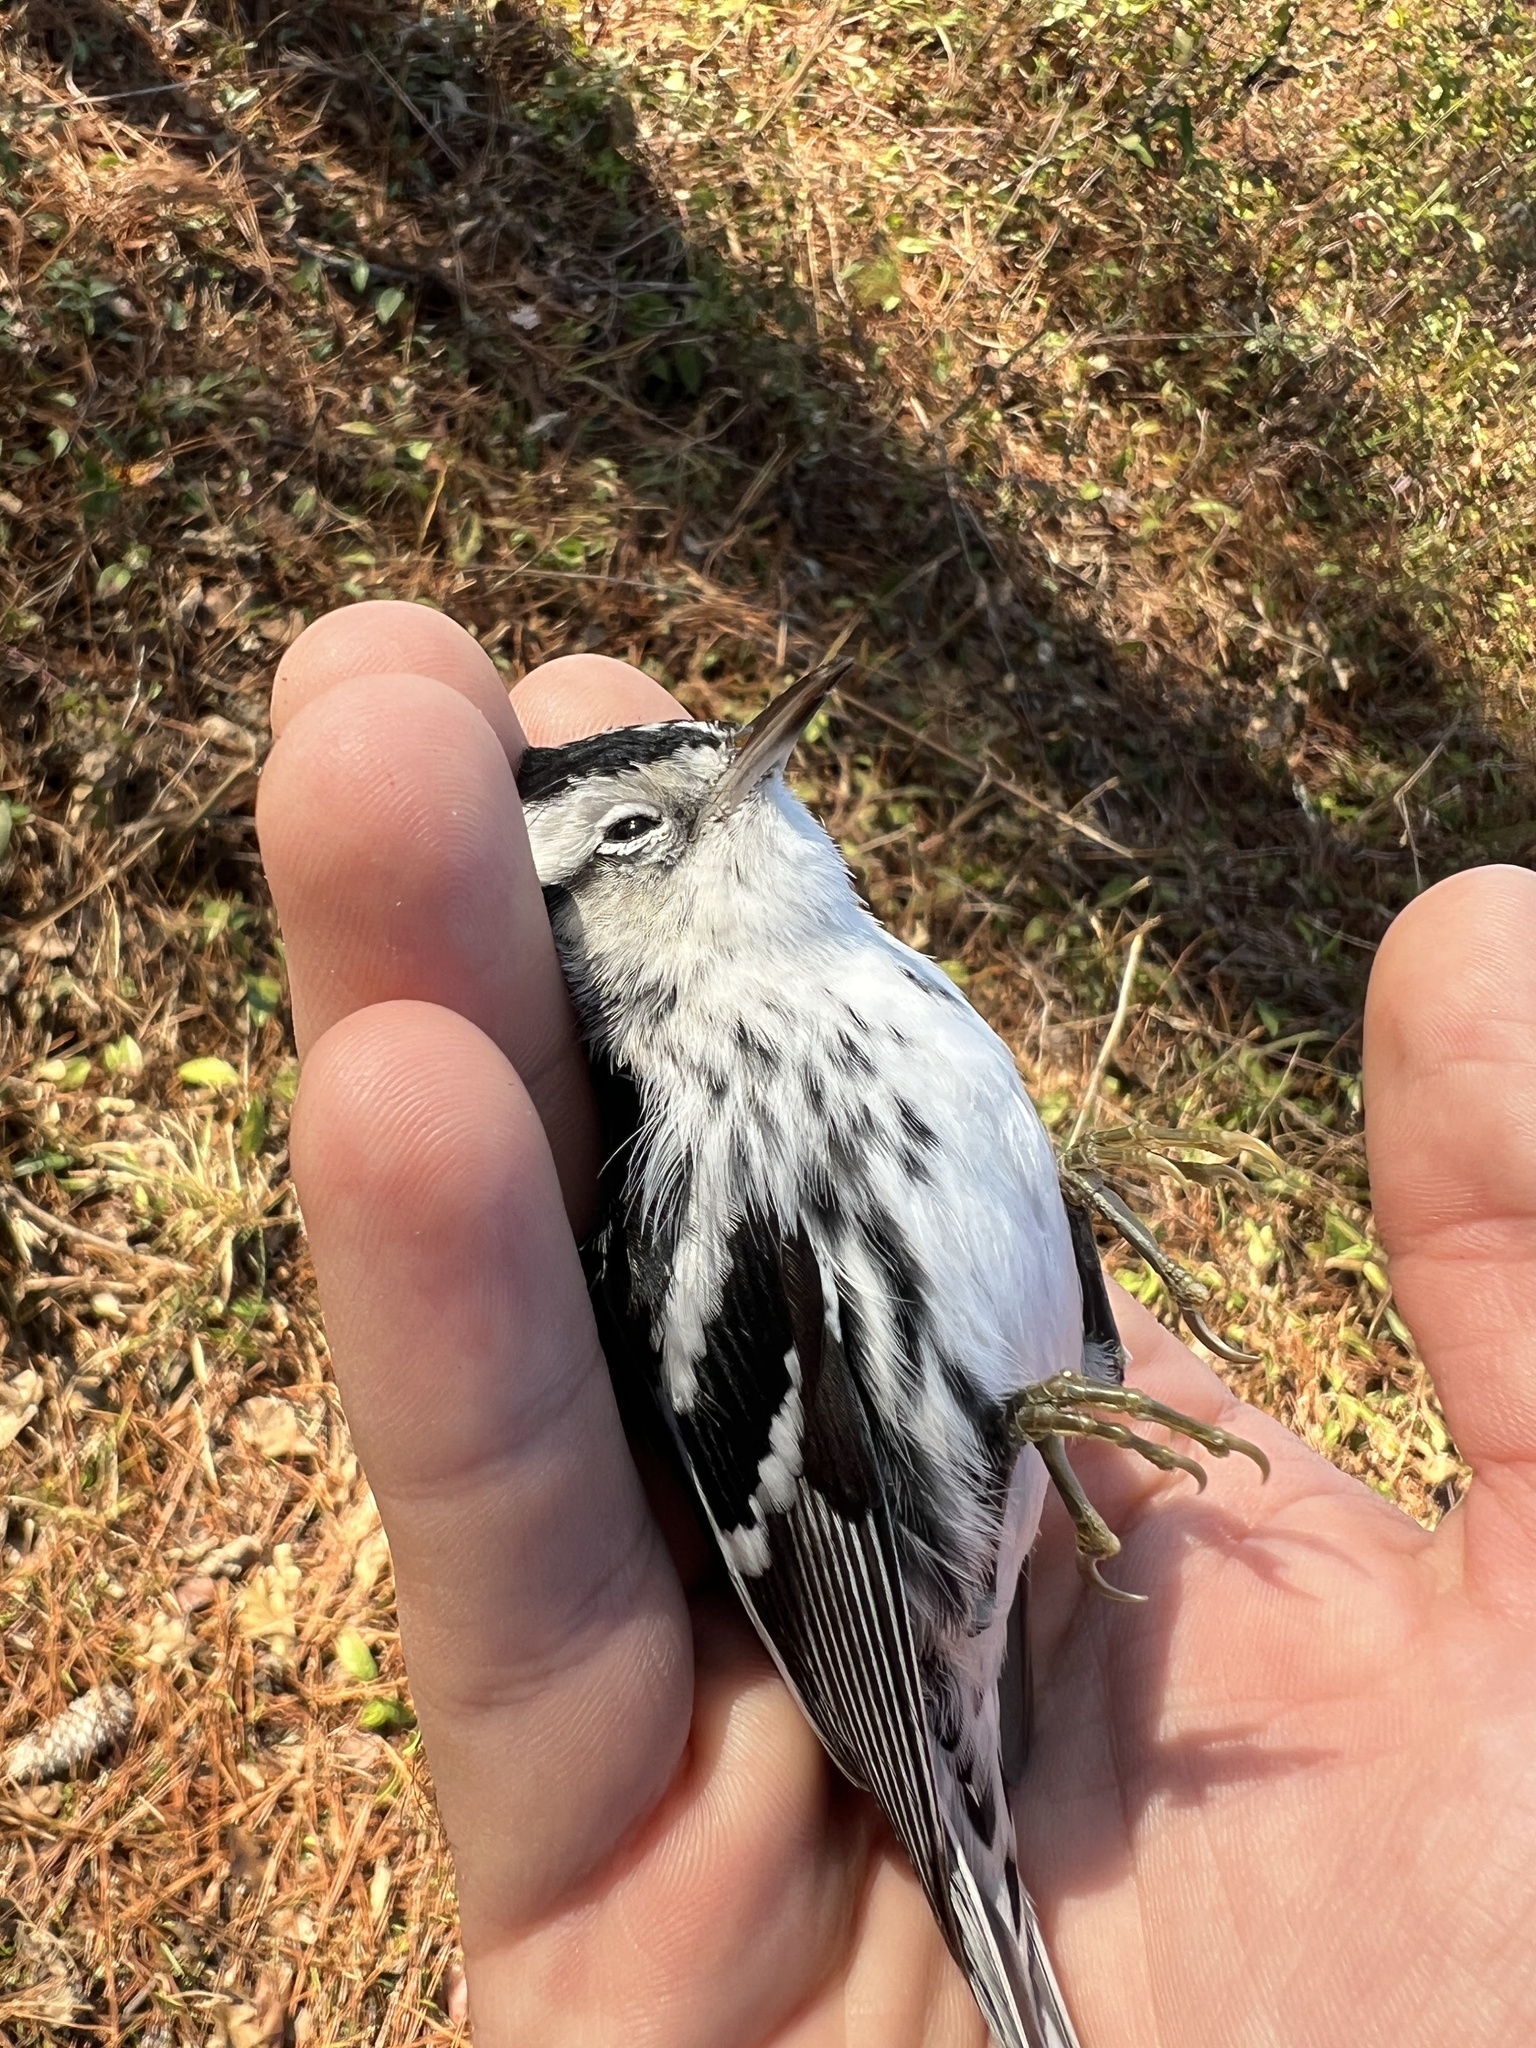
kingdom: Animalia
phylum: Chordata
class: Aves
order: Passeriformes
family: Parulidae
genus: Mniotilta
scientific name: Mniotilta varia
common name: Black-and-white warbler
